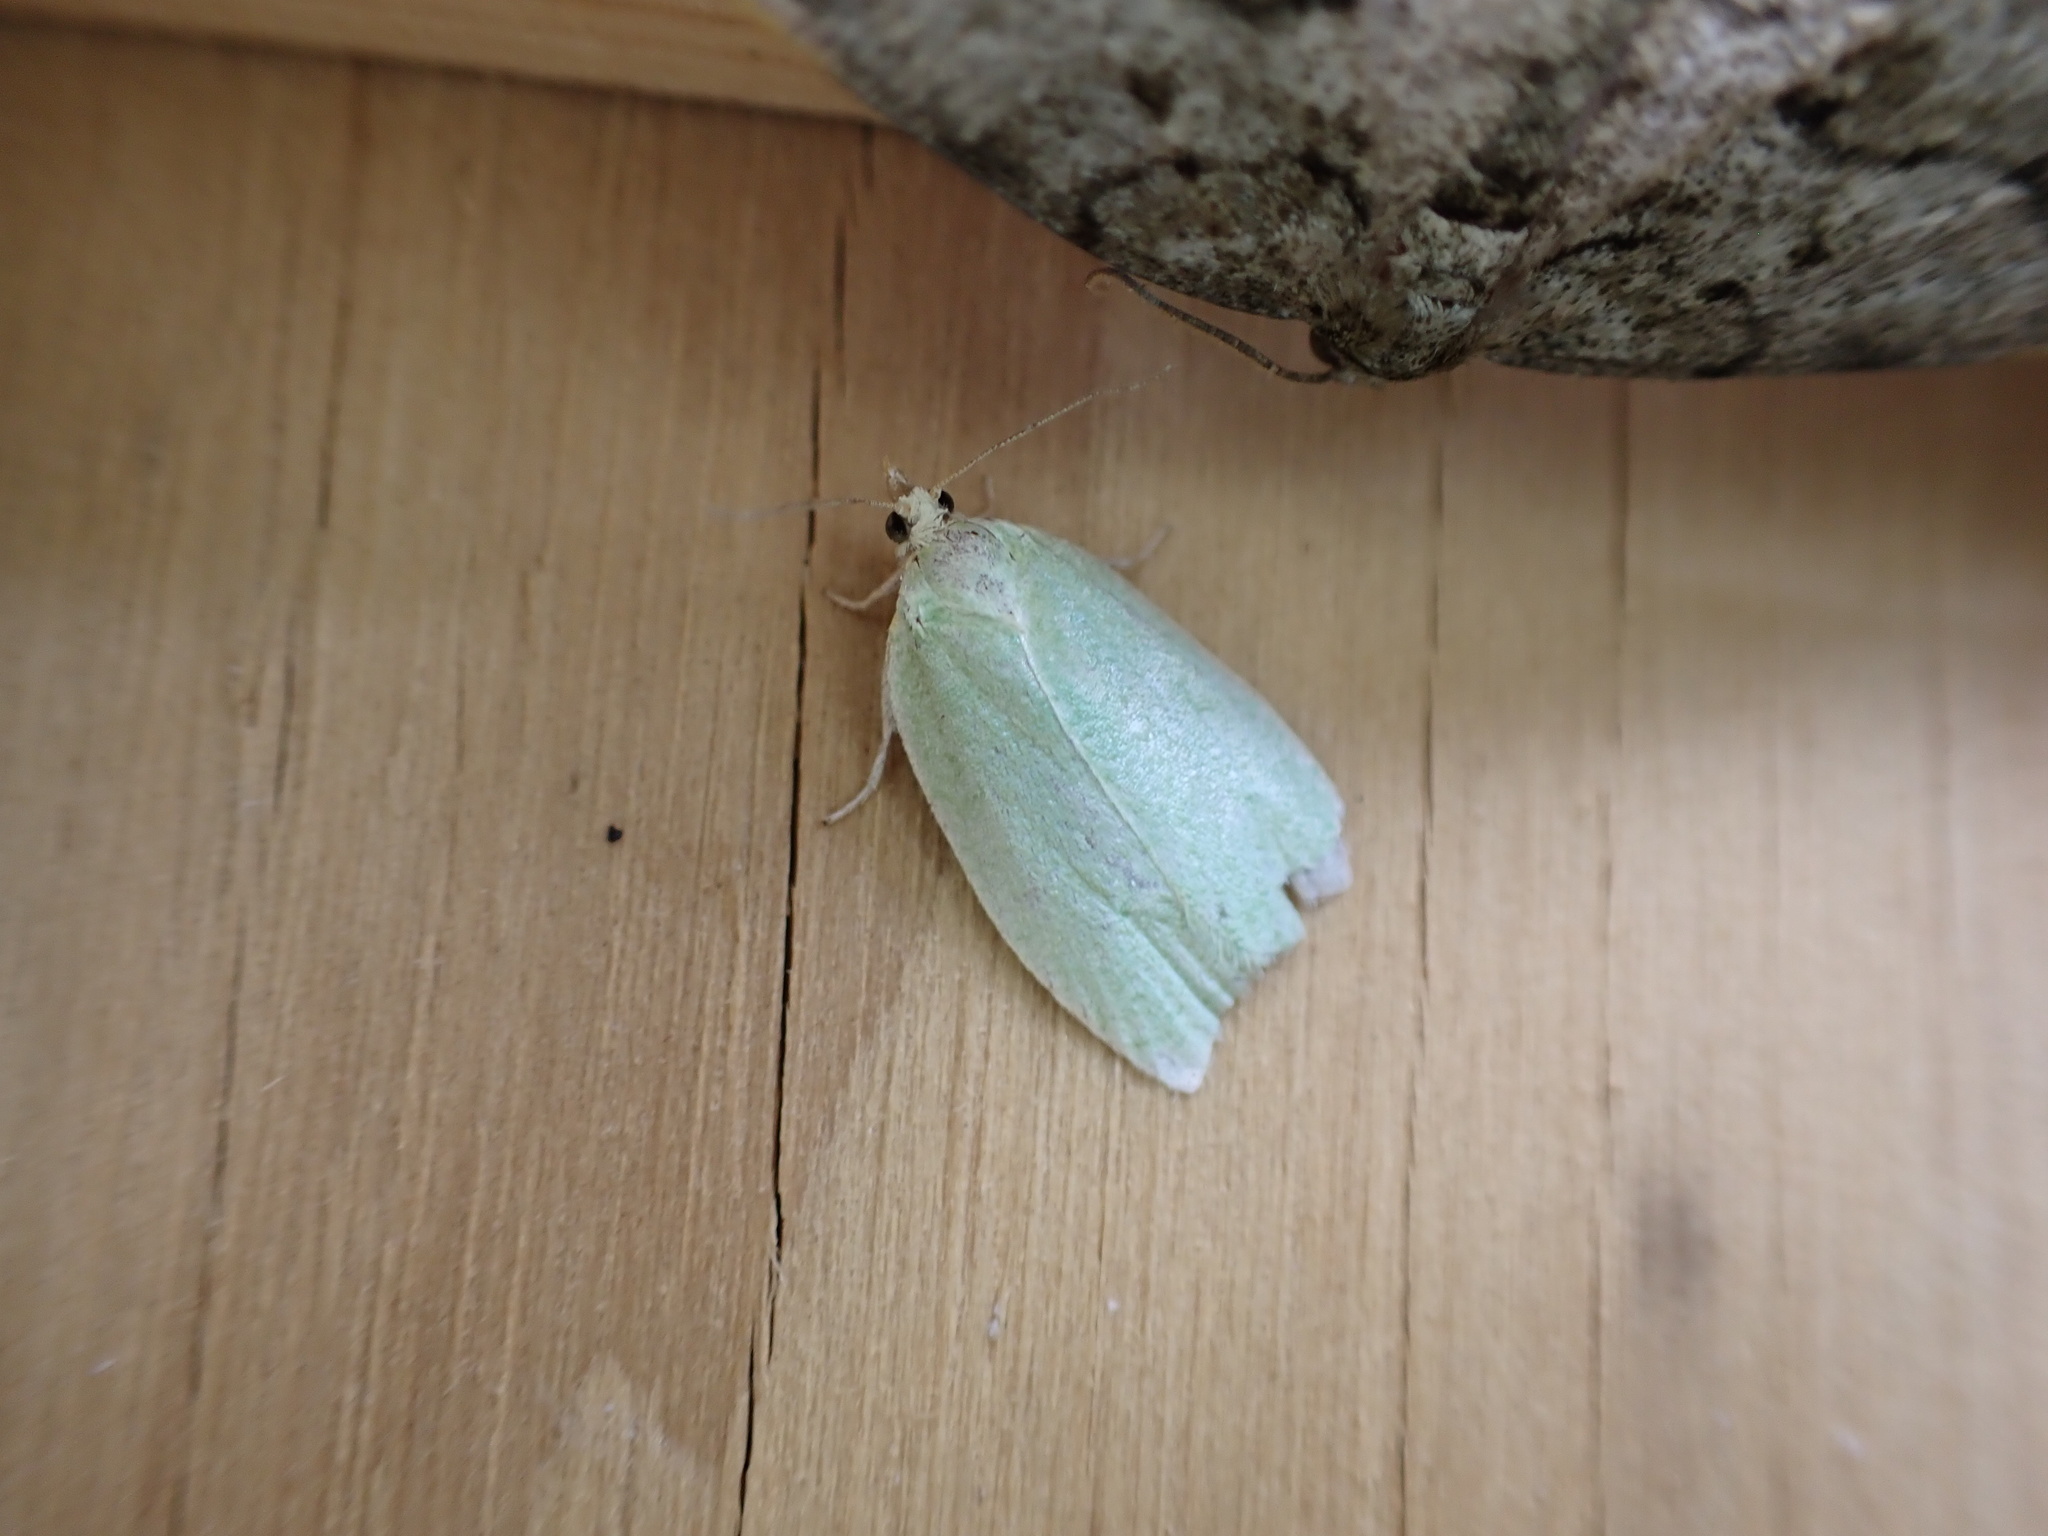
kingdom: Animalia
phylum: Arthropoda
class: Insecta
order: Lepidoptera
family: Tortricidae
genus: Tortrix
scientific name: Tortrix viridana
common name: Green oak tortrix
